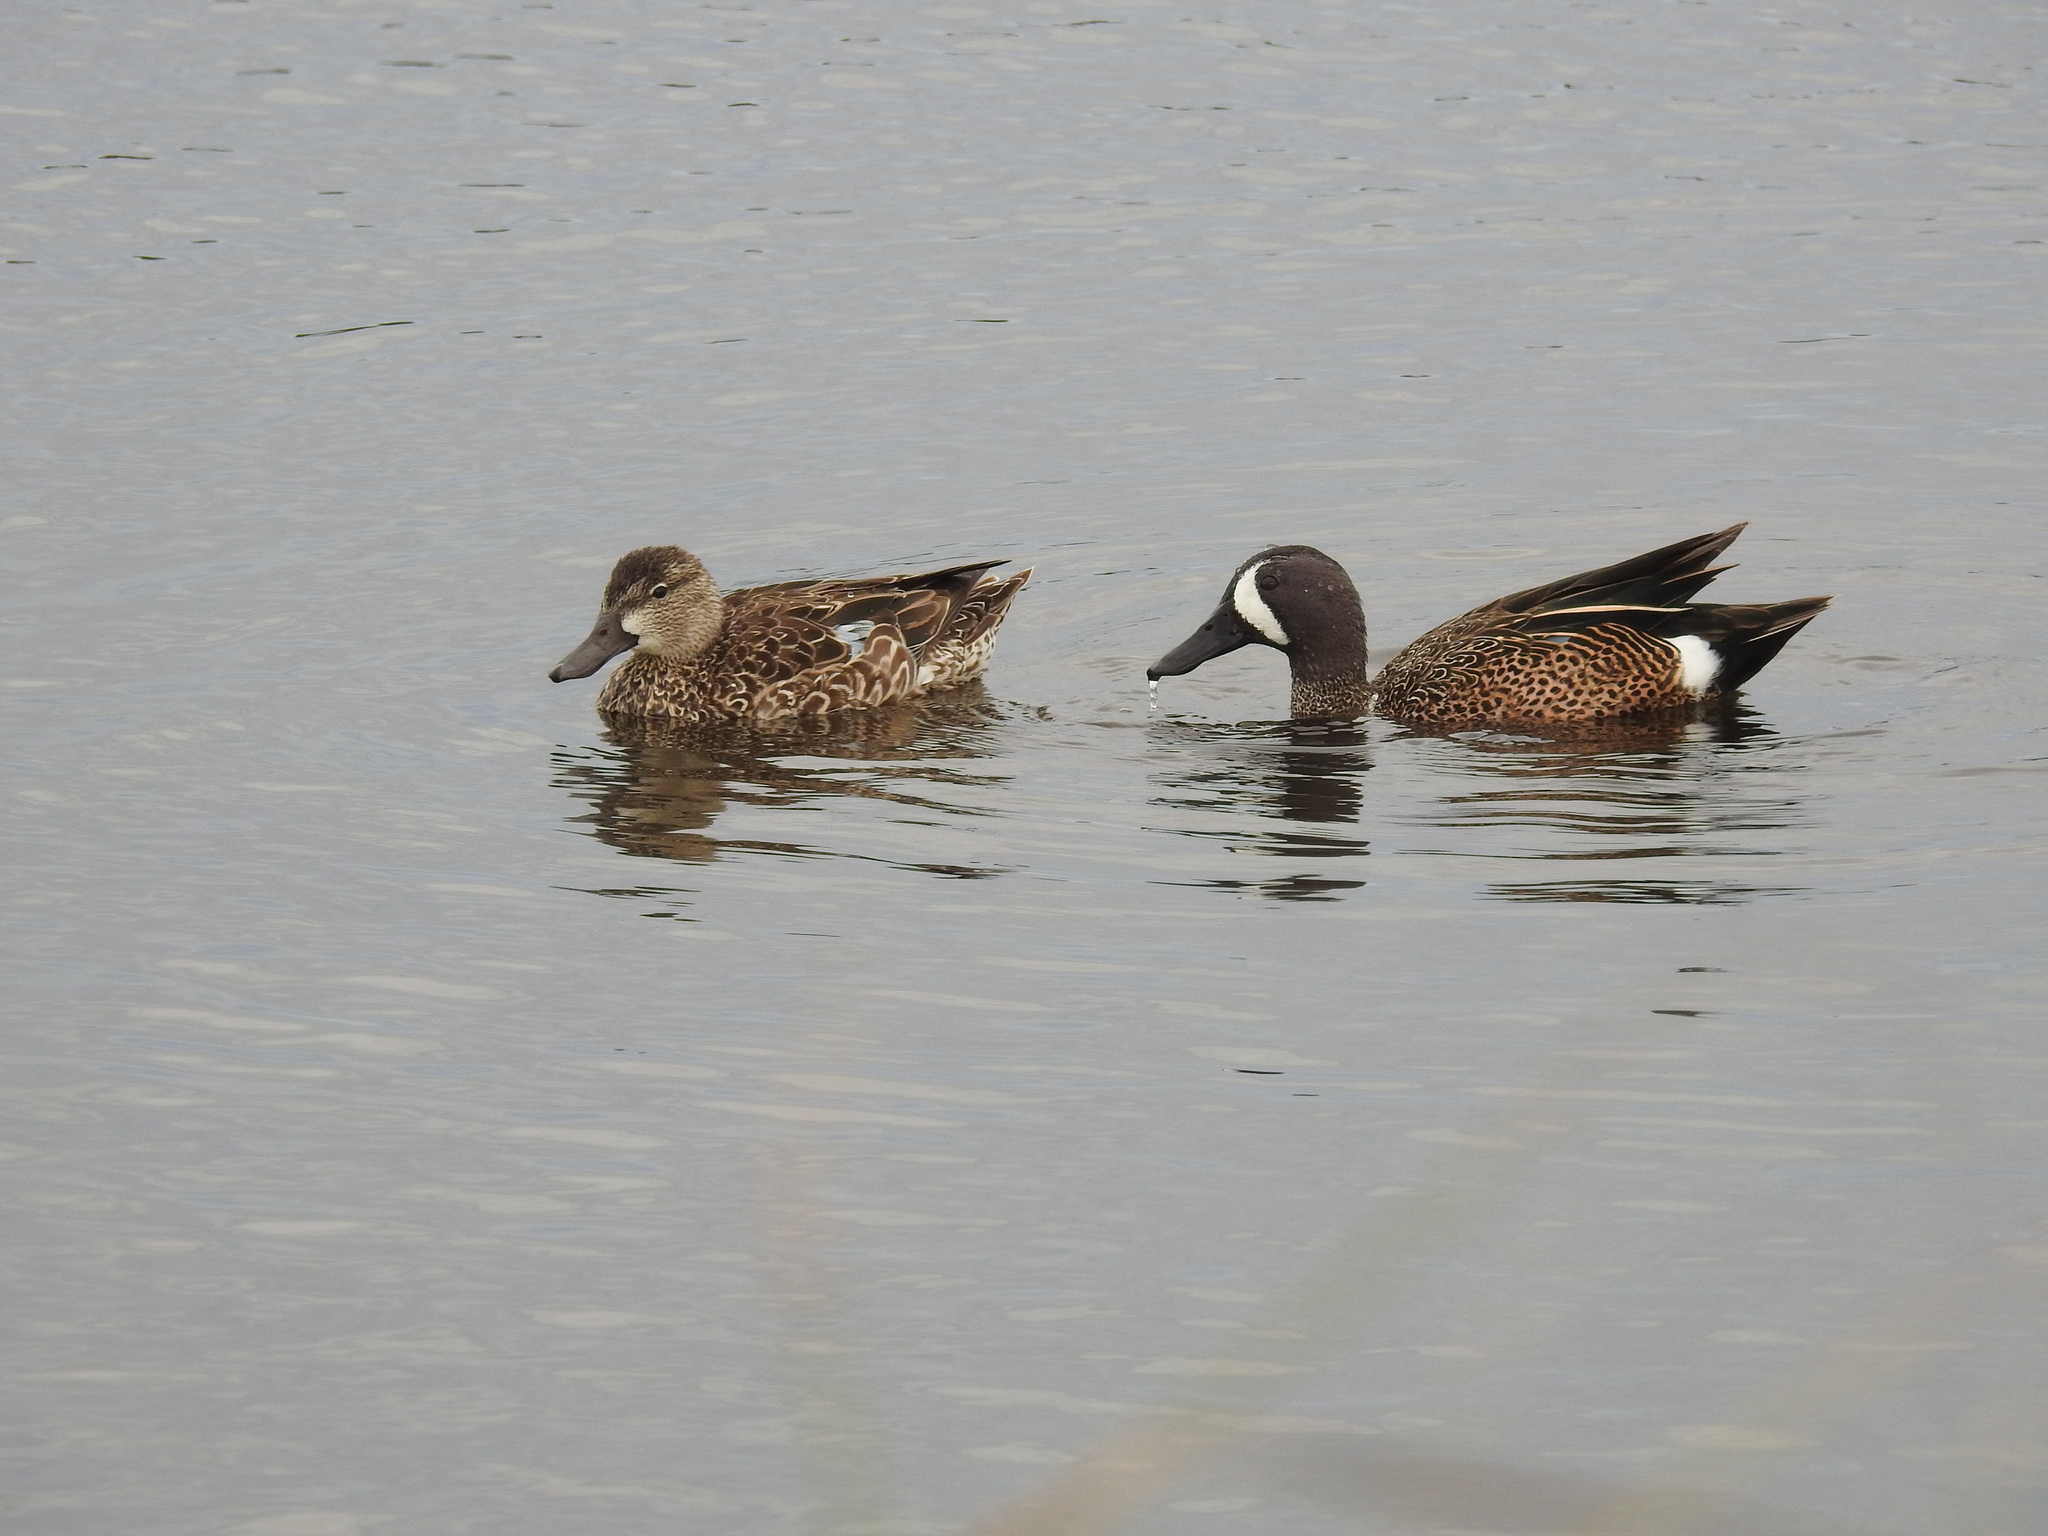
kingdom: Animalia
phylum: Chordata
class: Aves
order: Anseriformes
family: Anatidae
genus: Spatula
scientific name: Spatula discors
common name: Blue-winged teal
